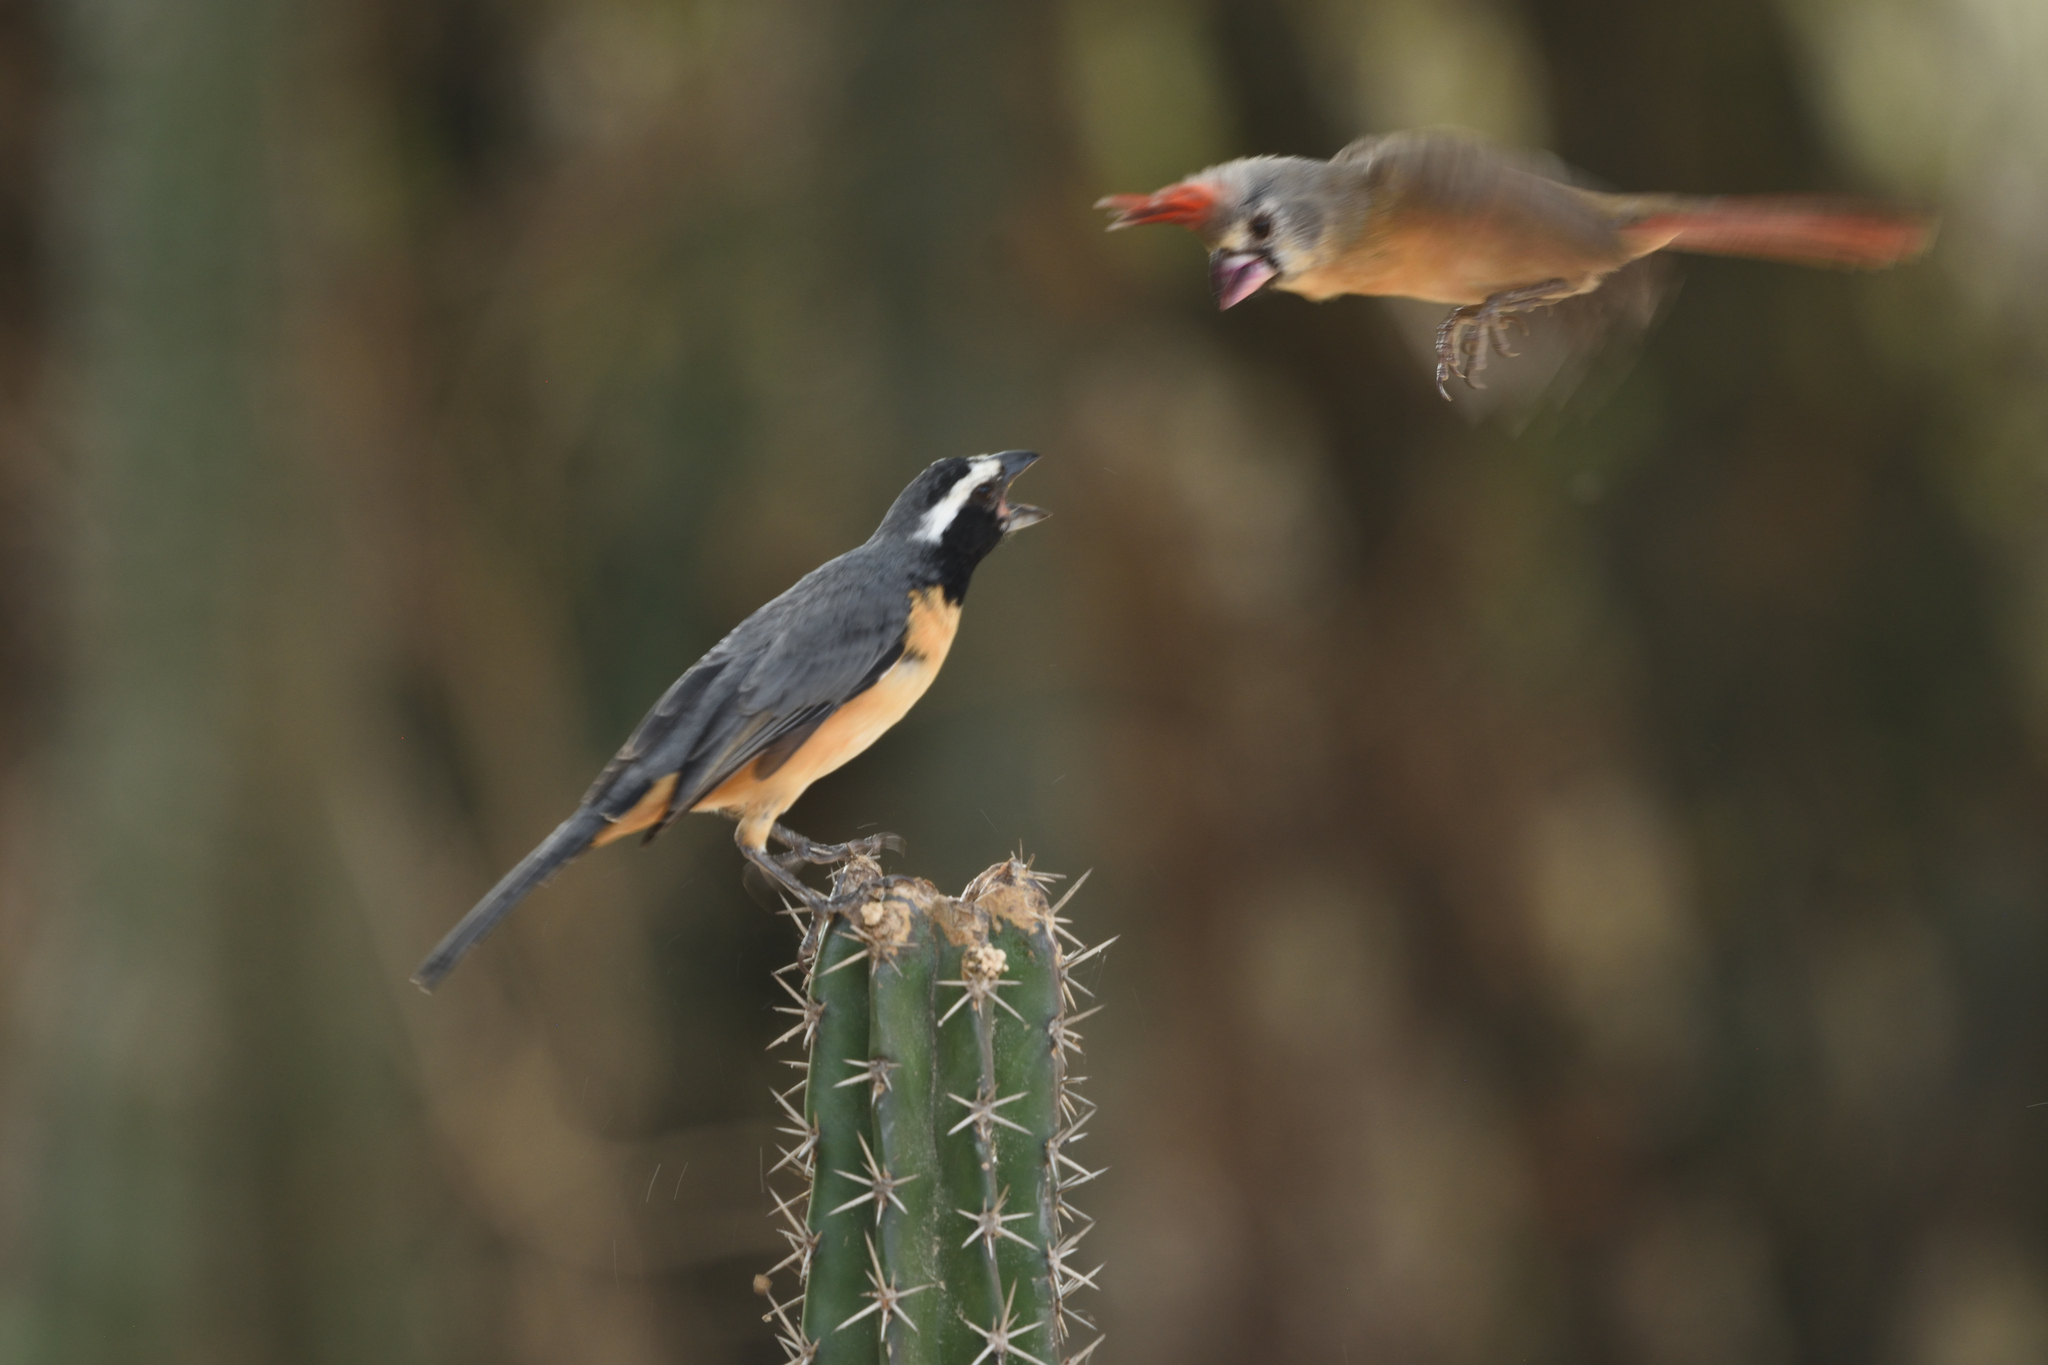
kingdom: Animalia
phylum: Chordata
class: Aves
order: Passeriformes
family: Thraupidae
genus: Saltator
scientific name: Saltator orenocensis
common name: Orinoco saltator
